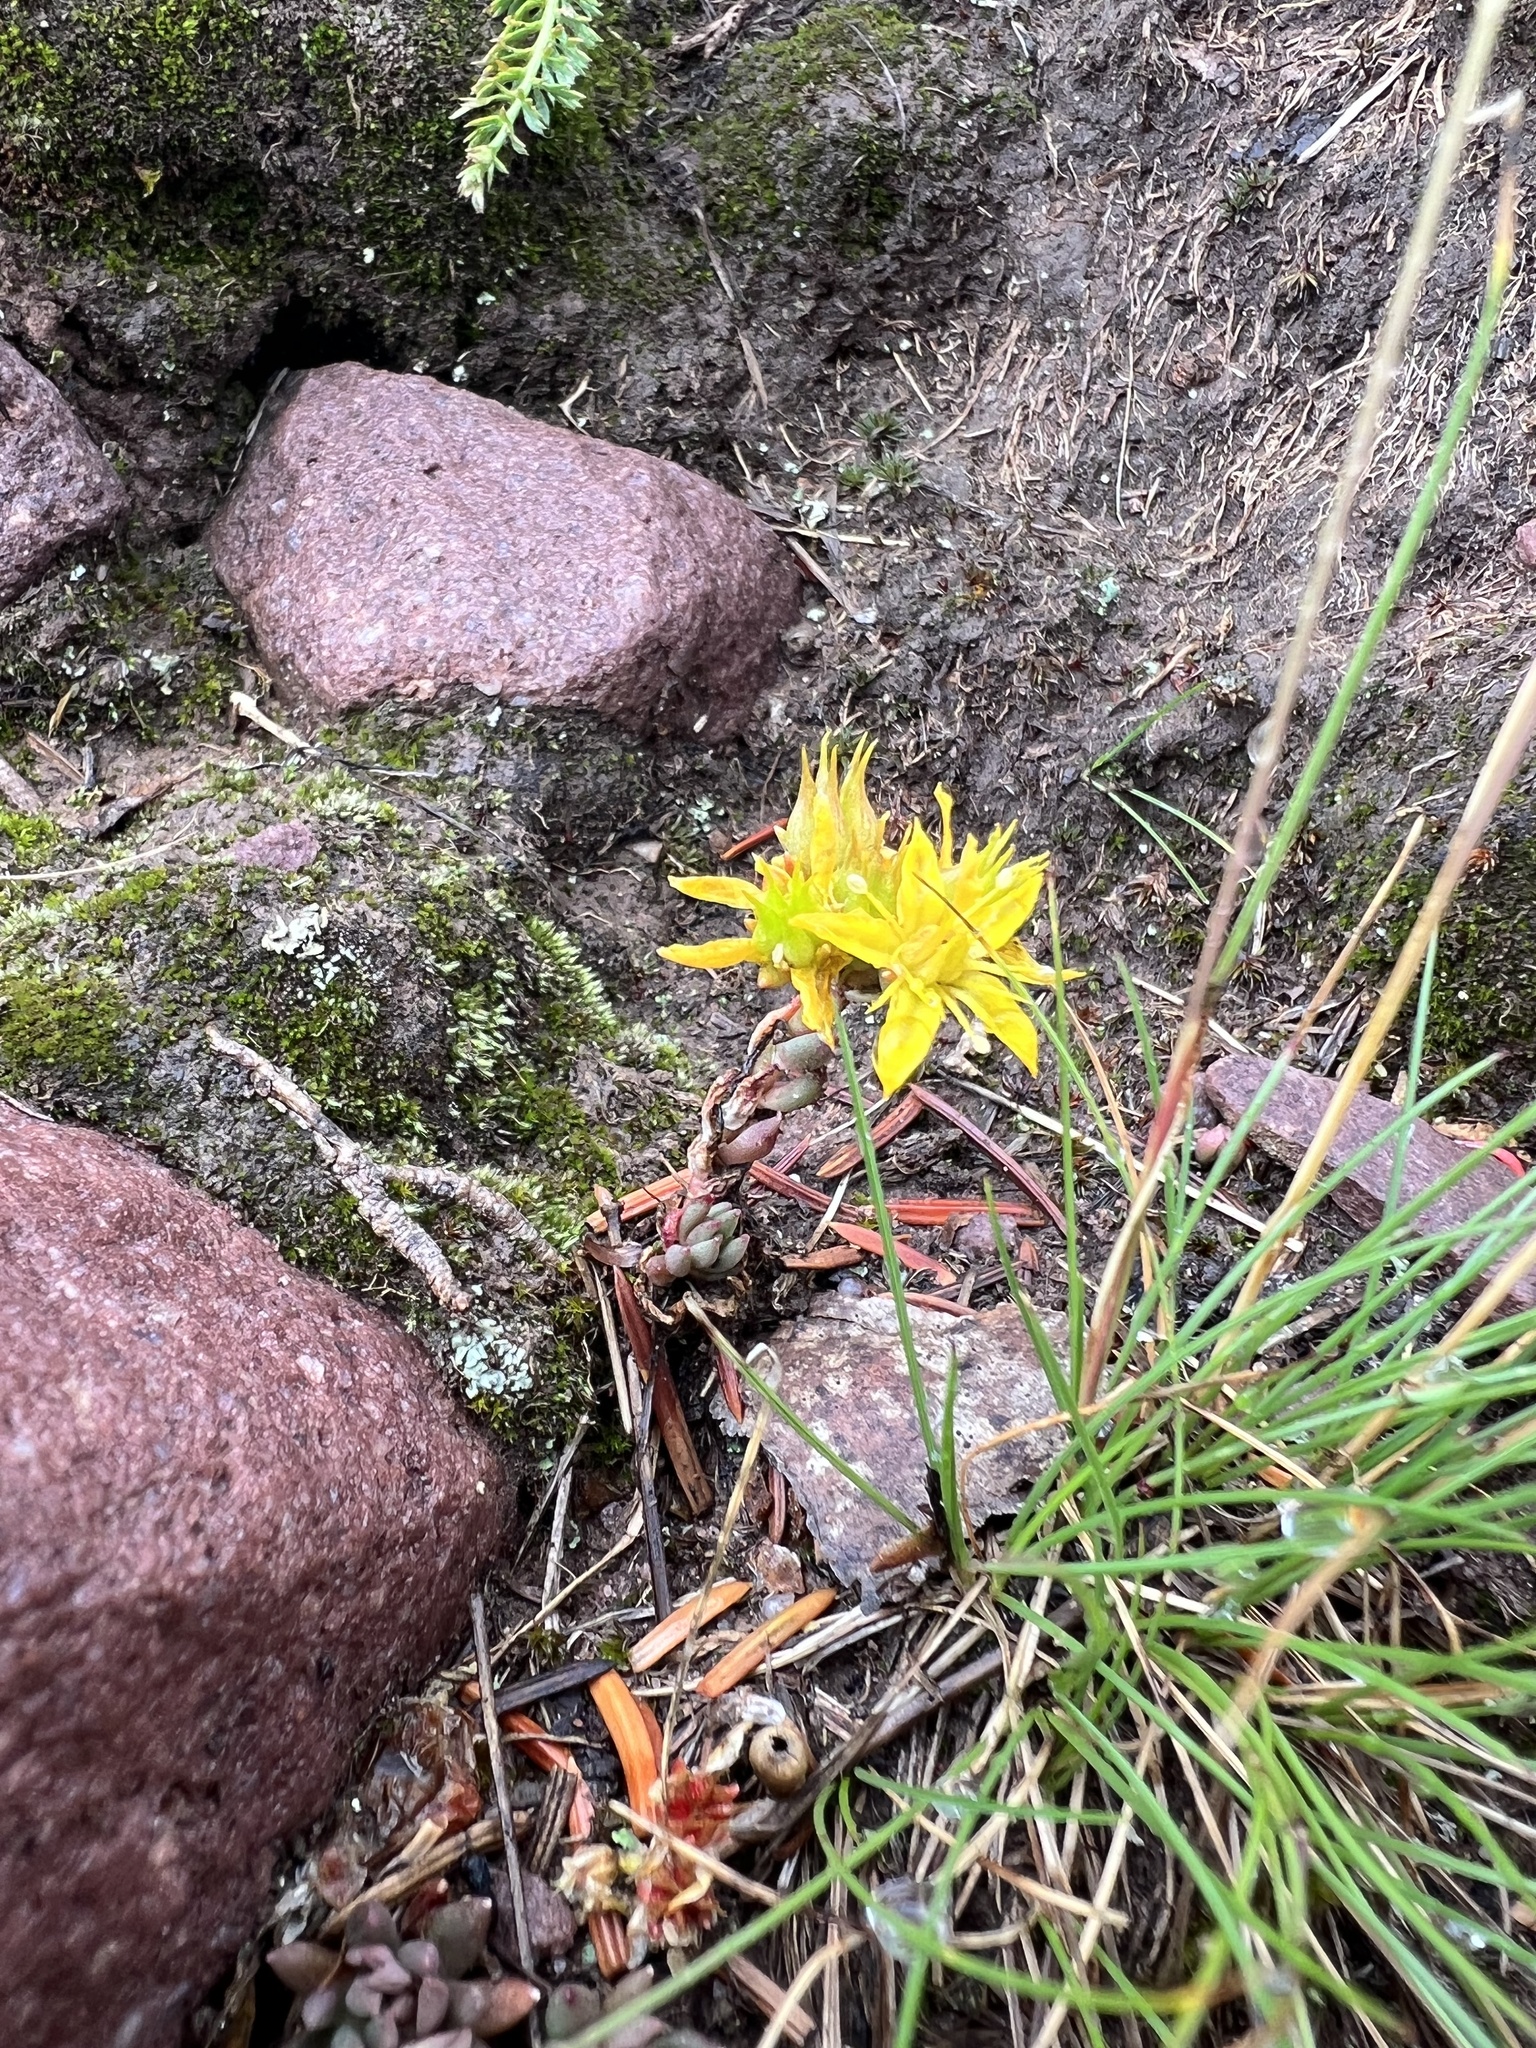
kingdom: Plantae
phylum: Tracheophyta
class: Magnoliopsida
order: Saxifragales
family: Crassulaceae
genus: Sedum
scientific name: Sedum lanceolatum
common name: Common stonecrop
